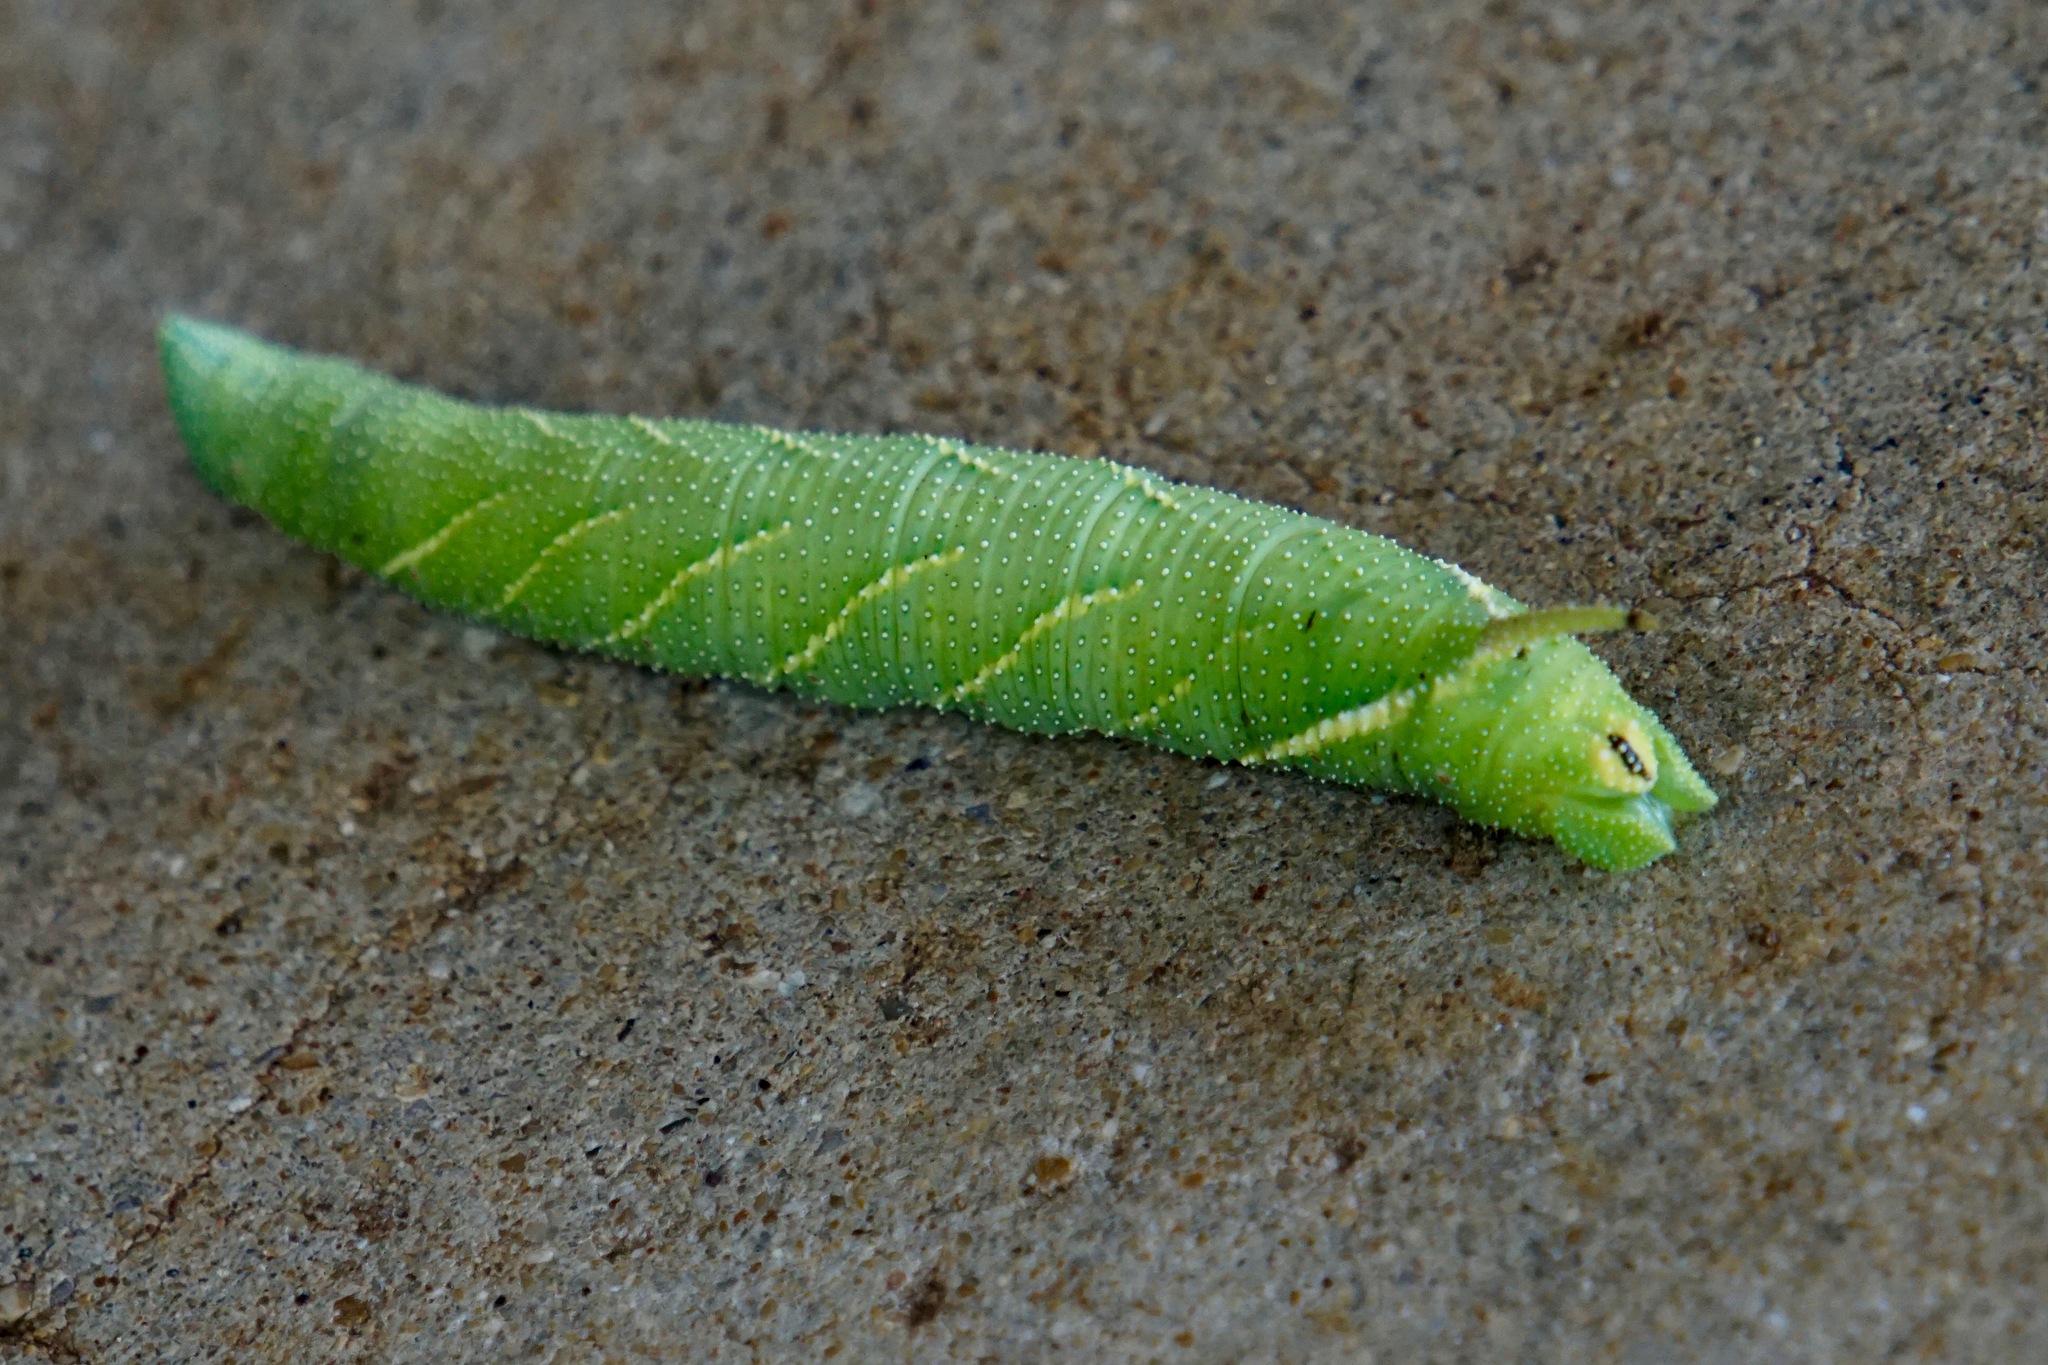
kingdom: Animalia
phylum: Arthropoda
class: Insecta
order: Lepidoptera
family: Sphingidae
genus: Amorpha
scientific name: Amorpha juglandis
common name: Walnut sphinx
